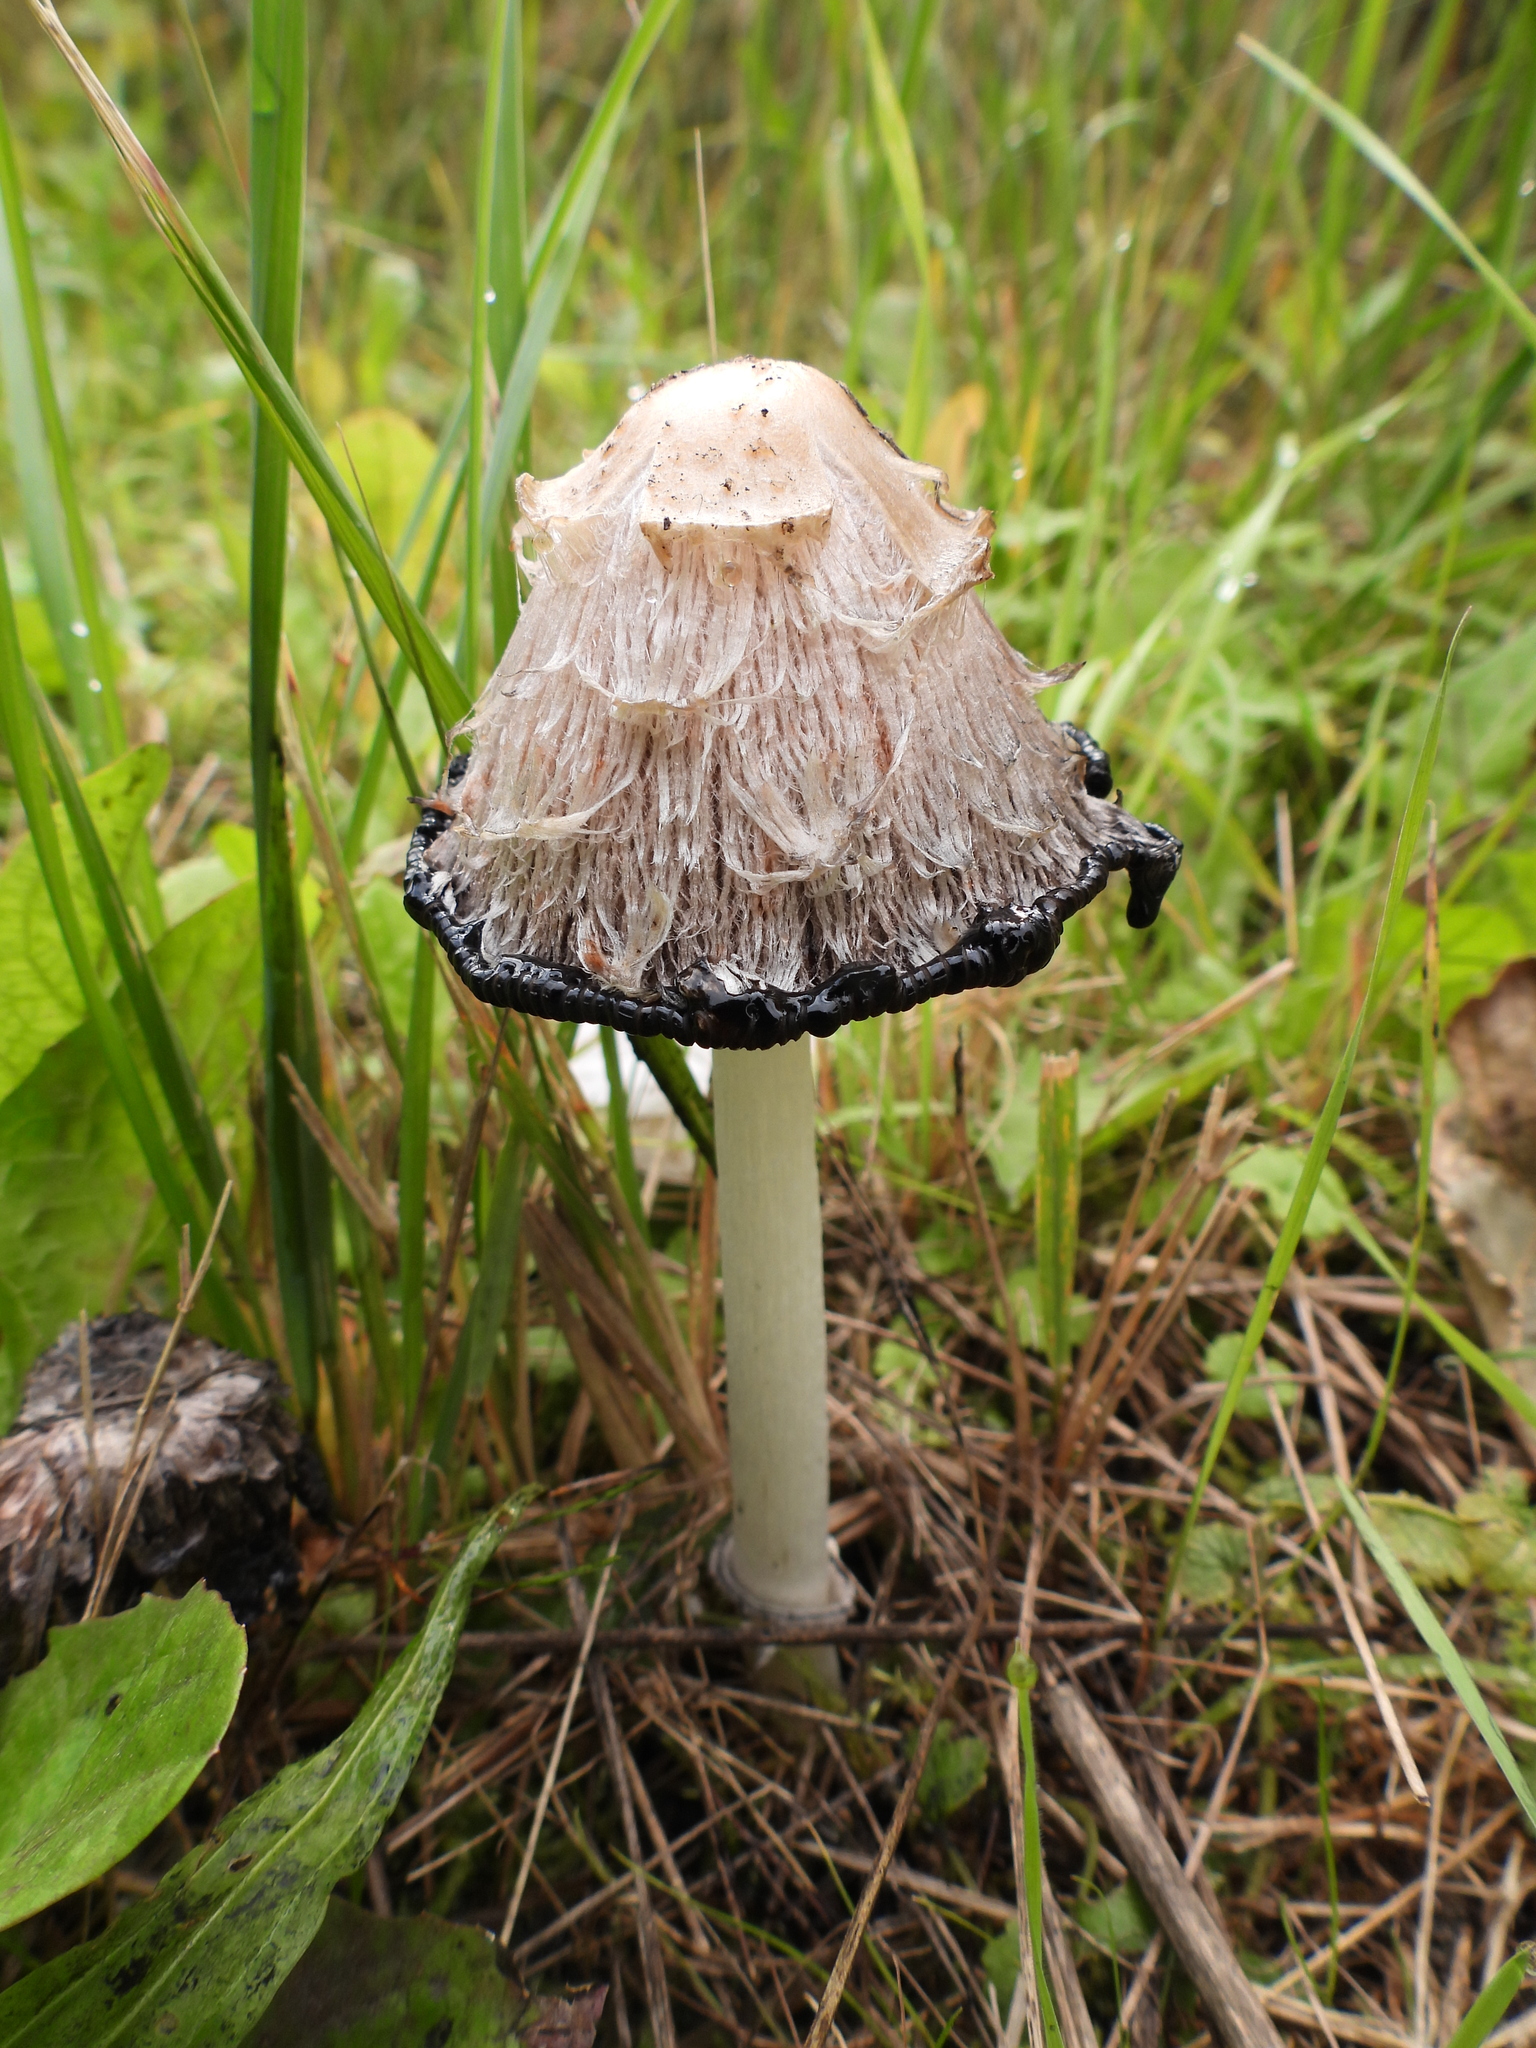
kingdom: Fungi
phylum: Basidiomycota
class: Agaricomycetes
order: Agaricales
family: Agaricaceae
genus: Coprinus
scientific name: Coprinus comatus
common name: Lawyer's wig
